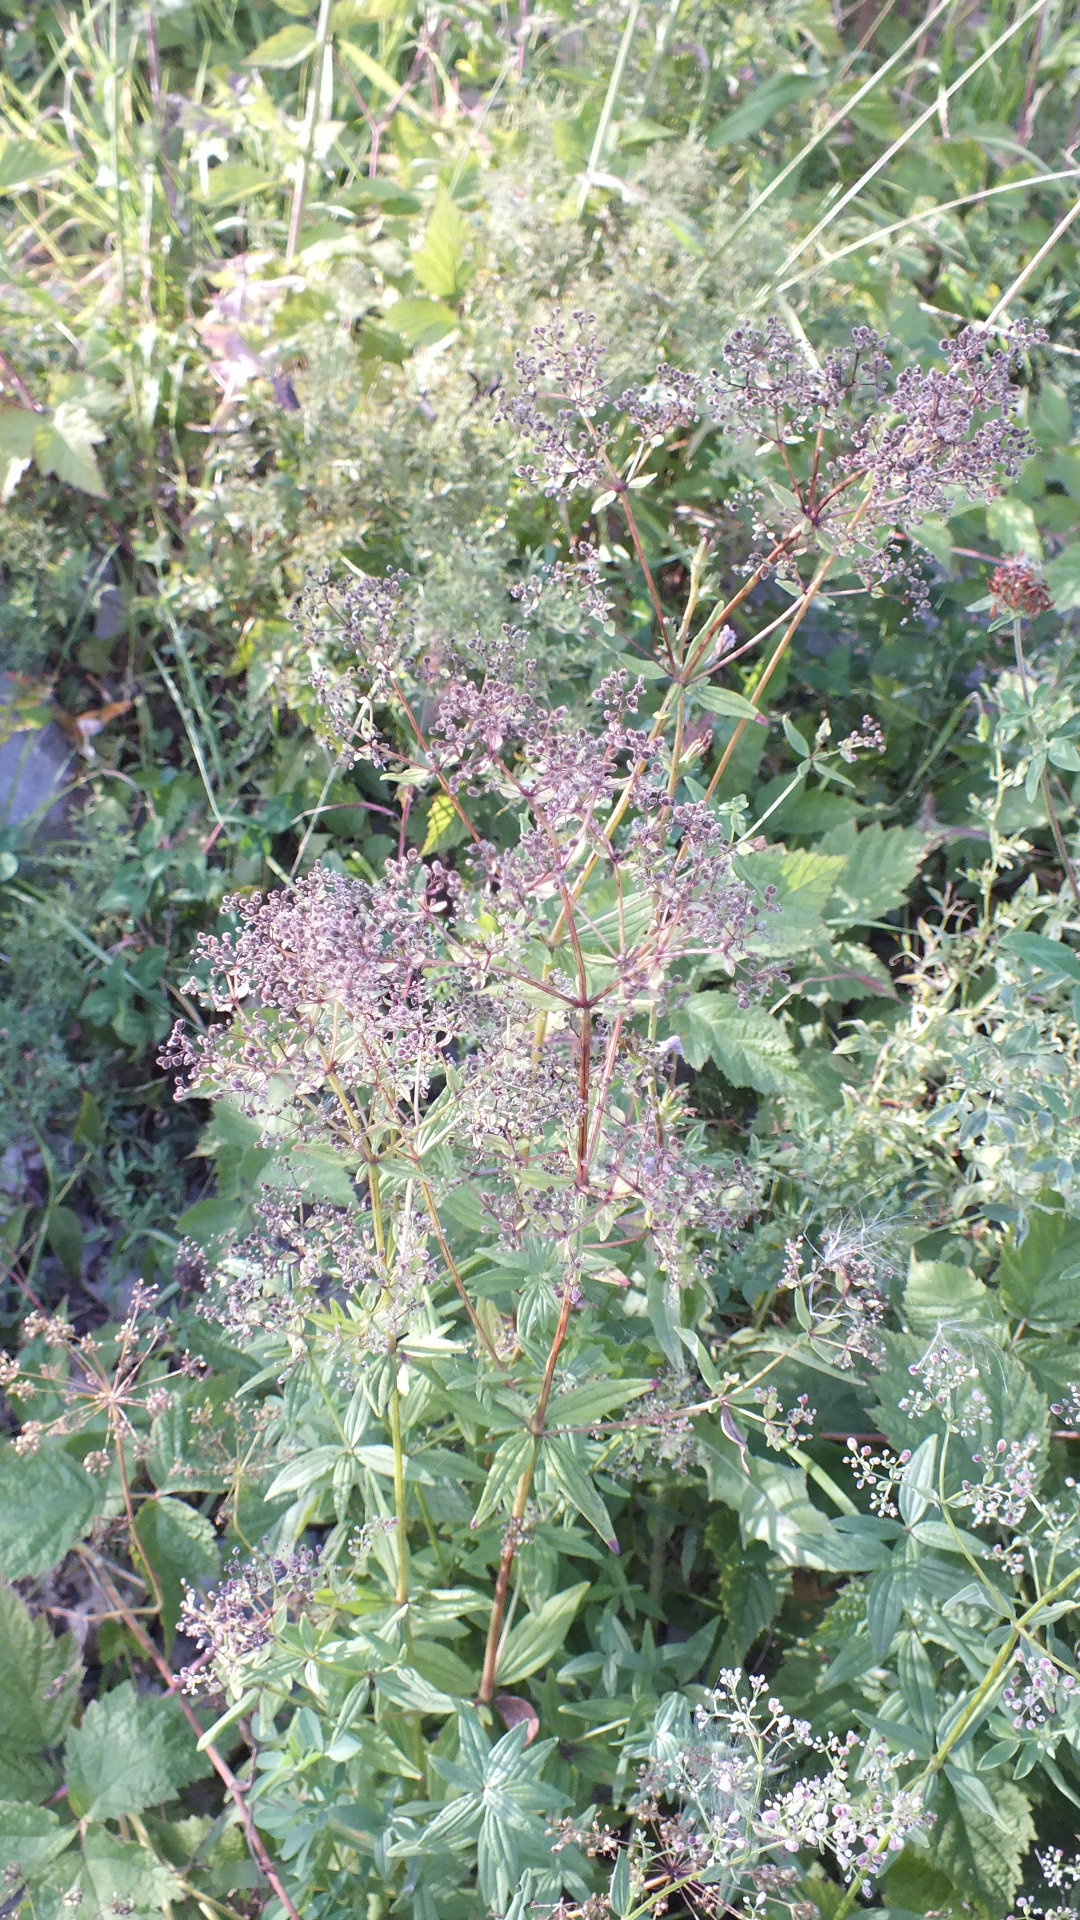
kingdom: Plantae
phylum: Tracheophyta
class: Magnoliopsida
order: Gentianales
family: Rubiaceae
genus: Galium
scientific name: Galium boreale
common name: Northern bedstraw
